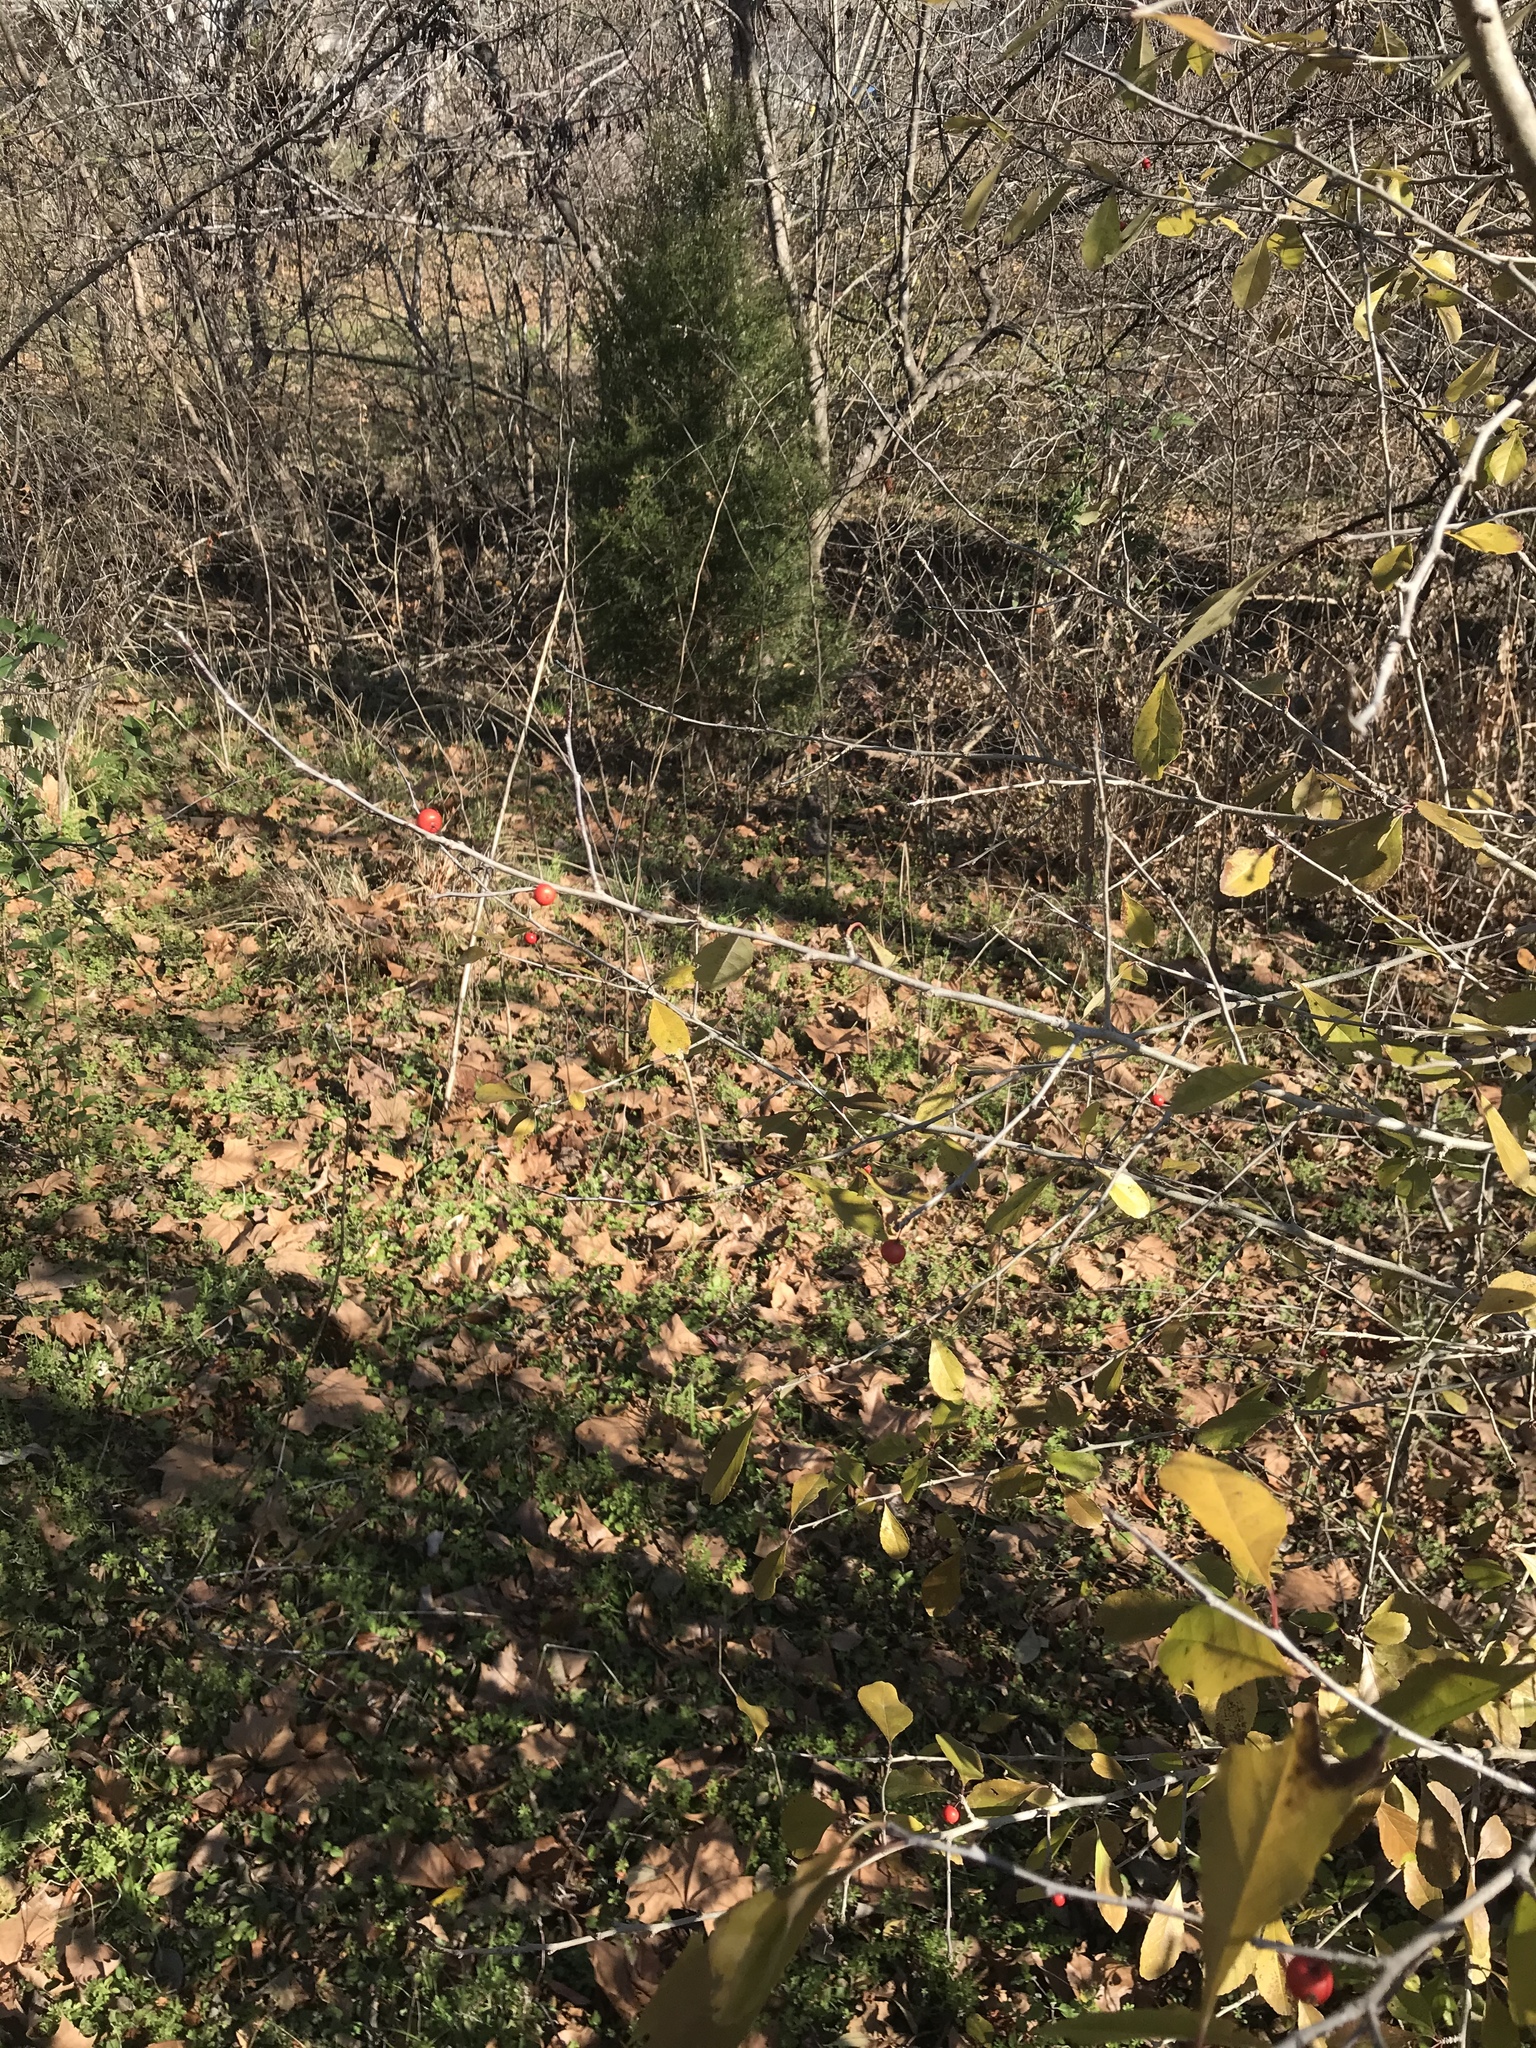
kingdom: Plantae
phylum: Tracheophyta
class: Magnoliopsida
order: Aquifoliales
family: Aquifoliaceae
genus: Ilex
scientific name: Ilex decidua
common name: Possum-haw
